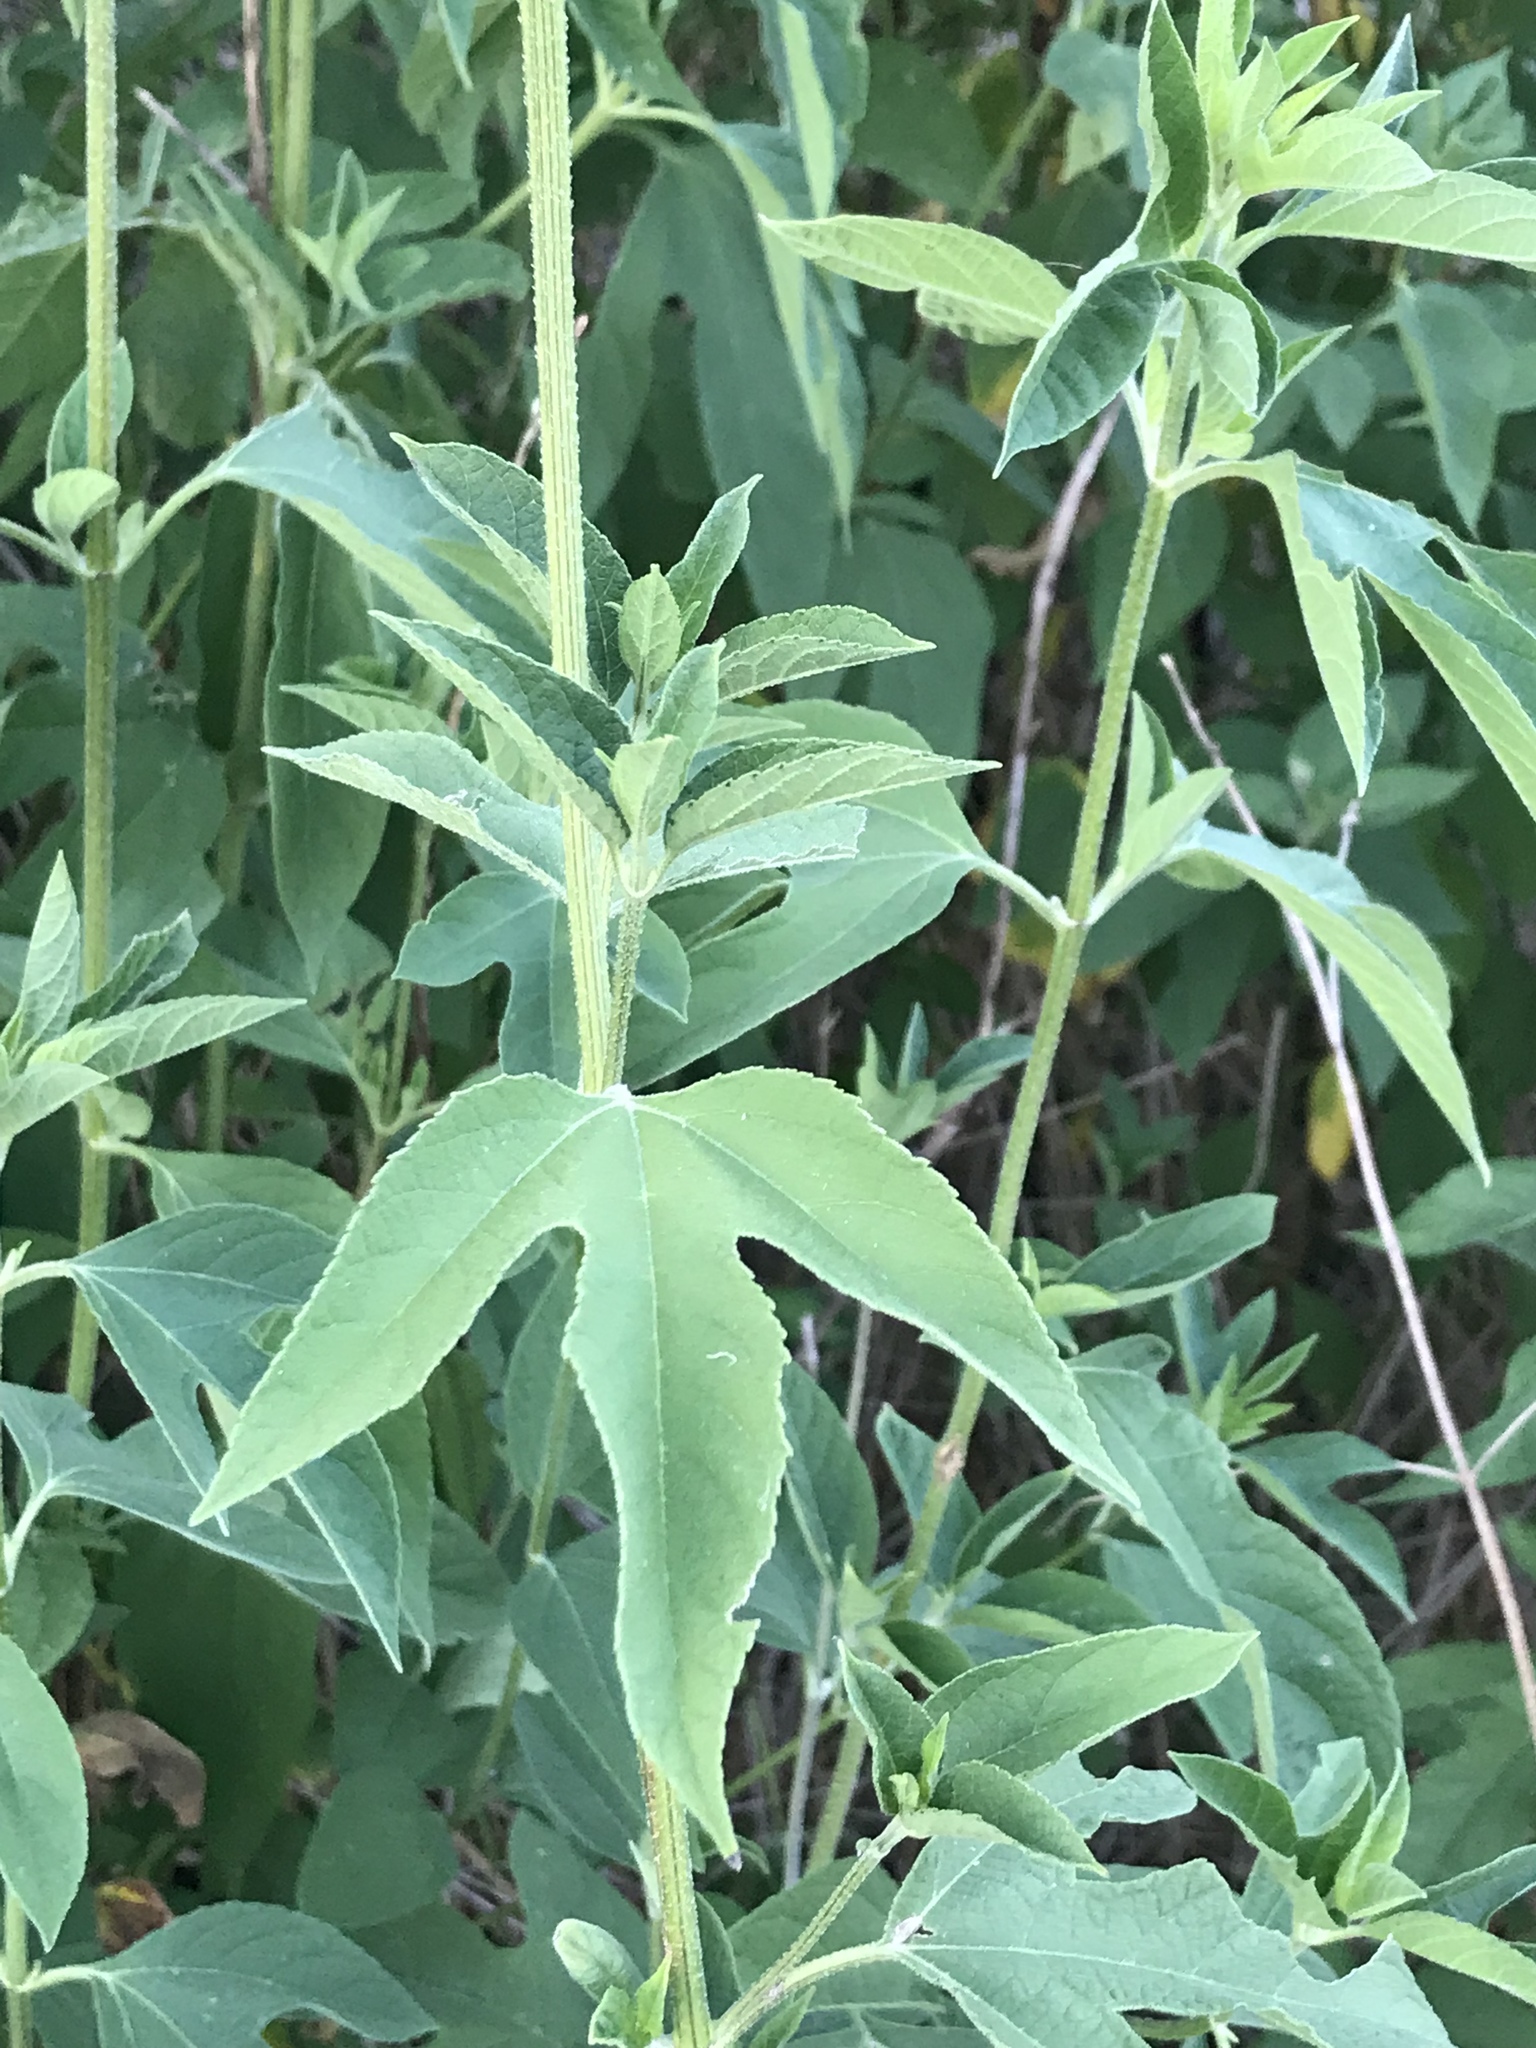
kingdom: Plantae
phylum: Tracheophyta
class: Magnoliopsida
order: Asterales
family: Asteraceae
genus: Ambrosia
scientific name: Ambrosia trifida
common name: Giant ragweed
